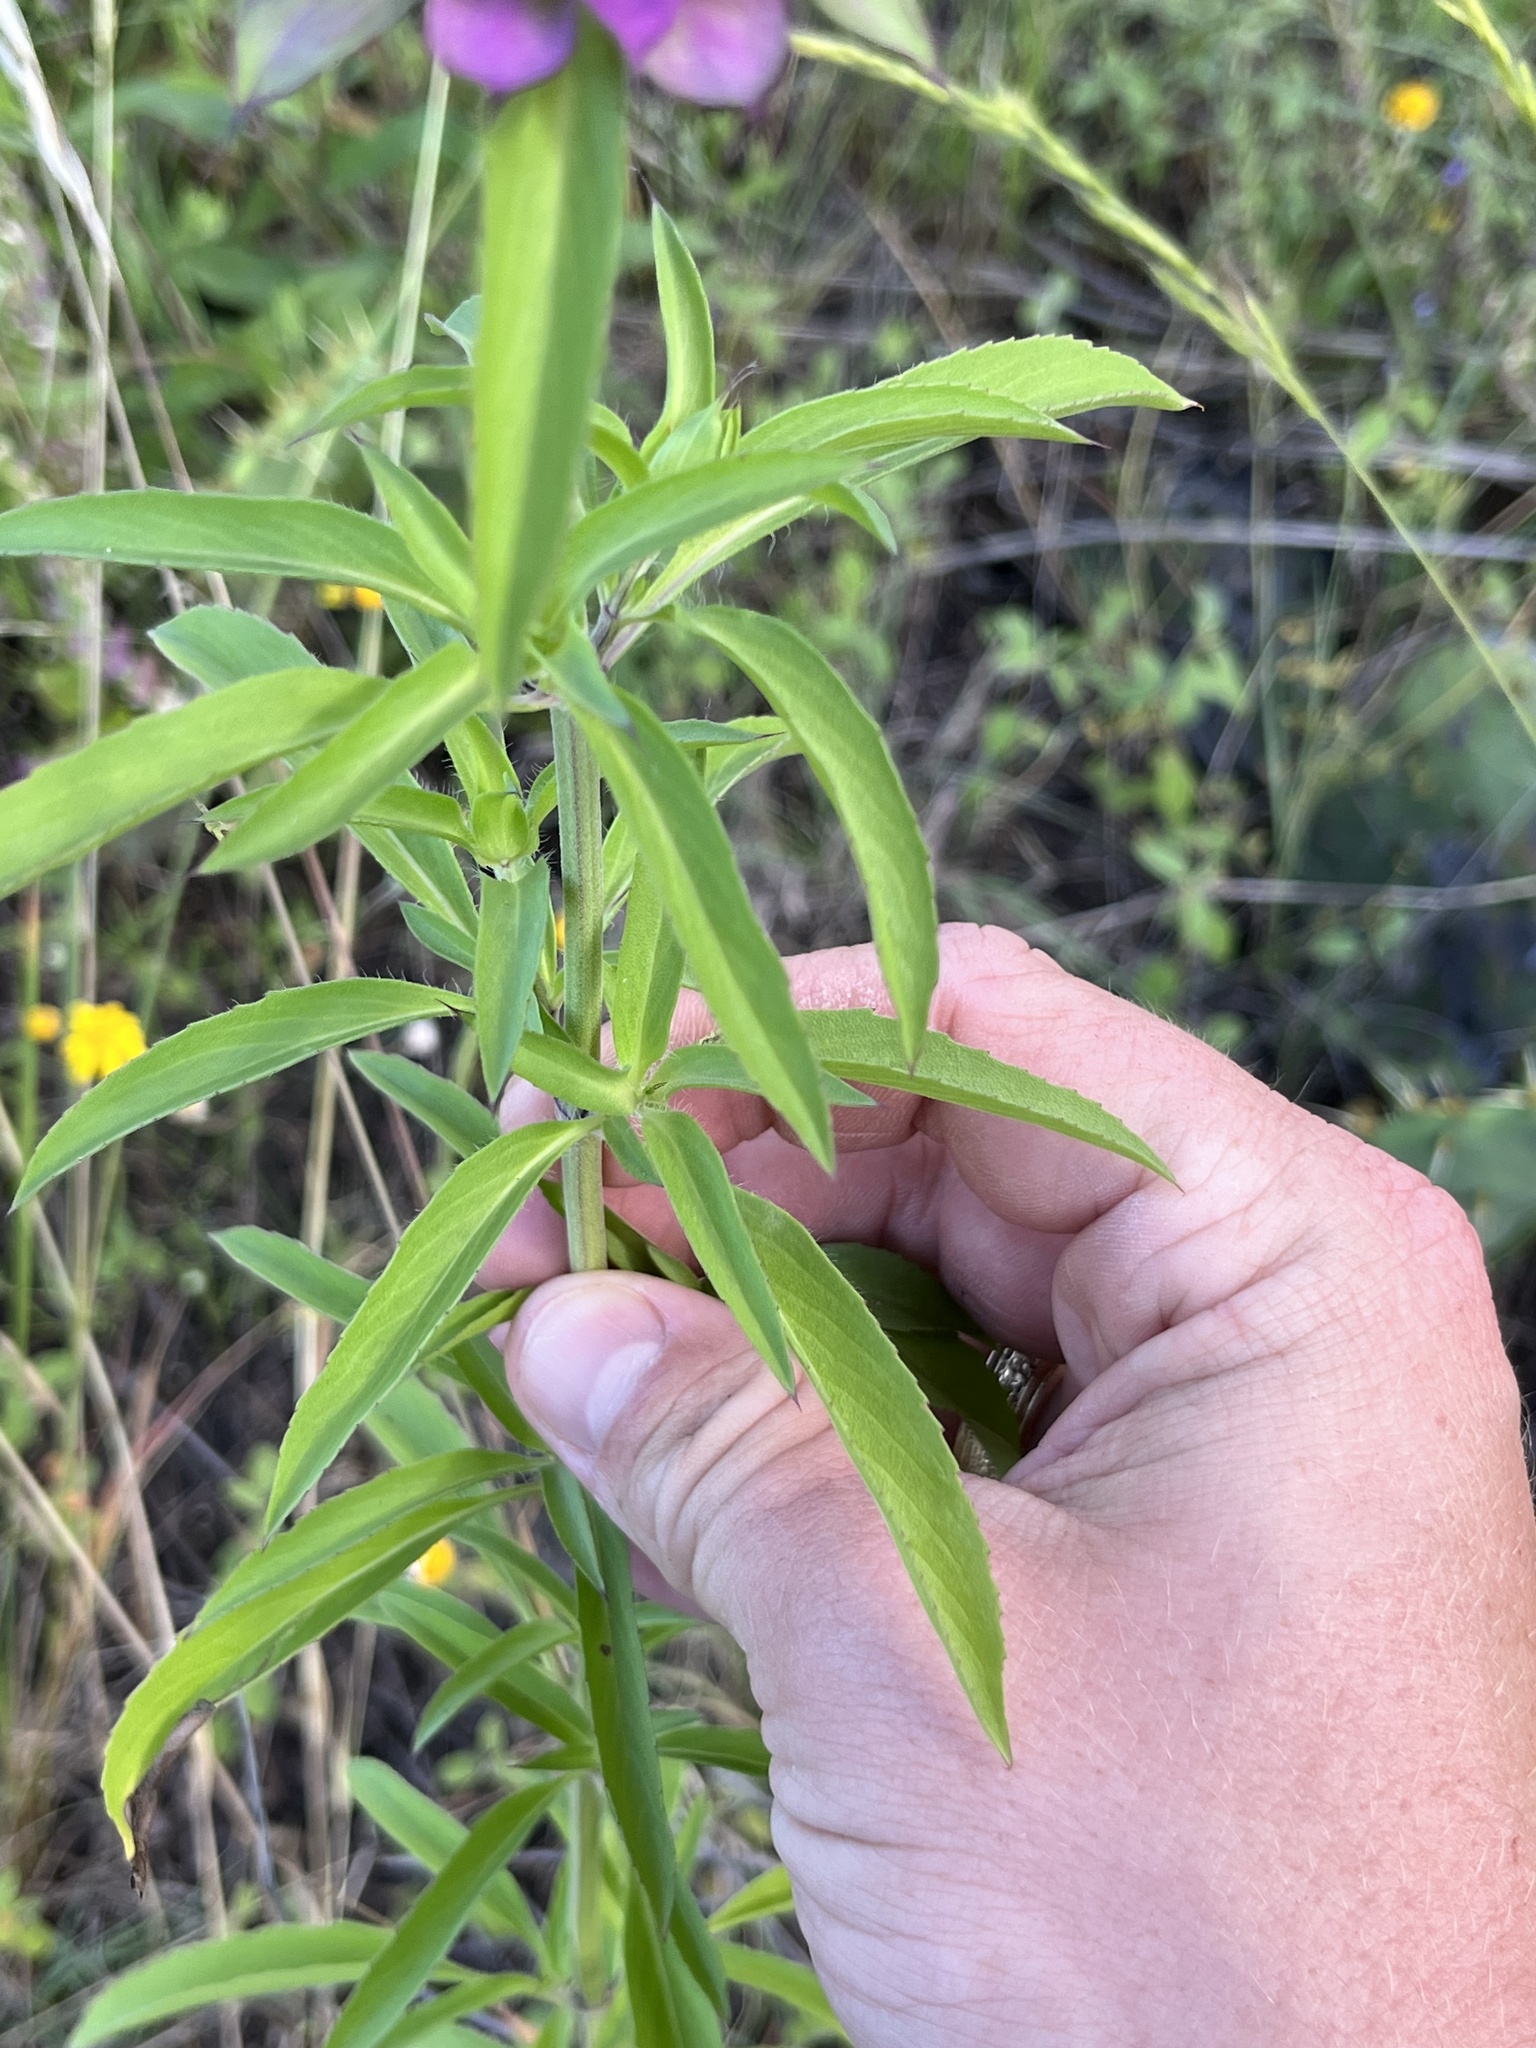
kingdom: Plantae
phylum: Tracheophyta
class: Magnoliopsida
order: Lamiales
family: Lamiaceae
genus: Monarda
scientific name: Monarda citriodora
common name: Lemon beebalm
